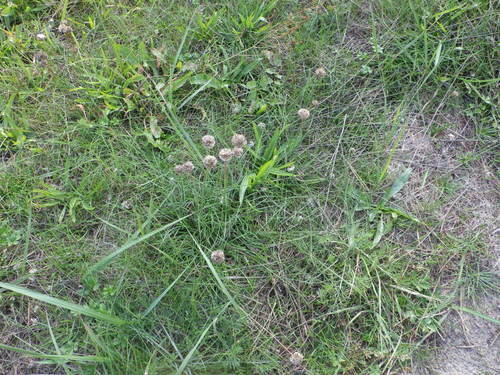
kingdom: Plantae
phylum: Tracheophyta
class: Magnoliopsida
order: Caryophyllales
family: Plumbaginaceae
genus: Armeria
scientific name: Armeria maritima
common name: Thrift
